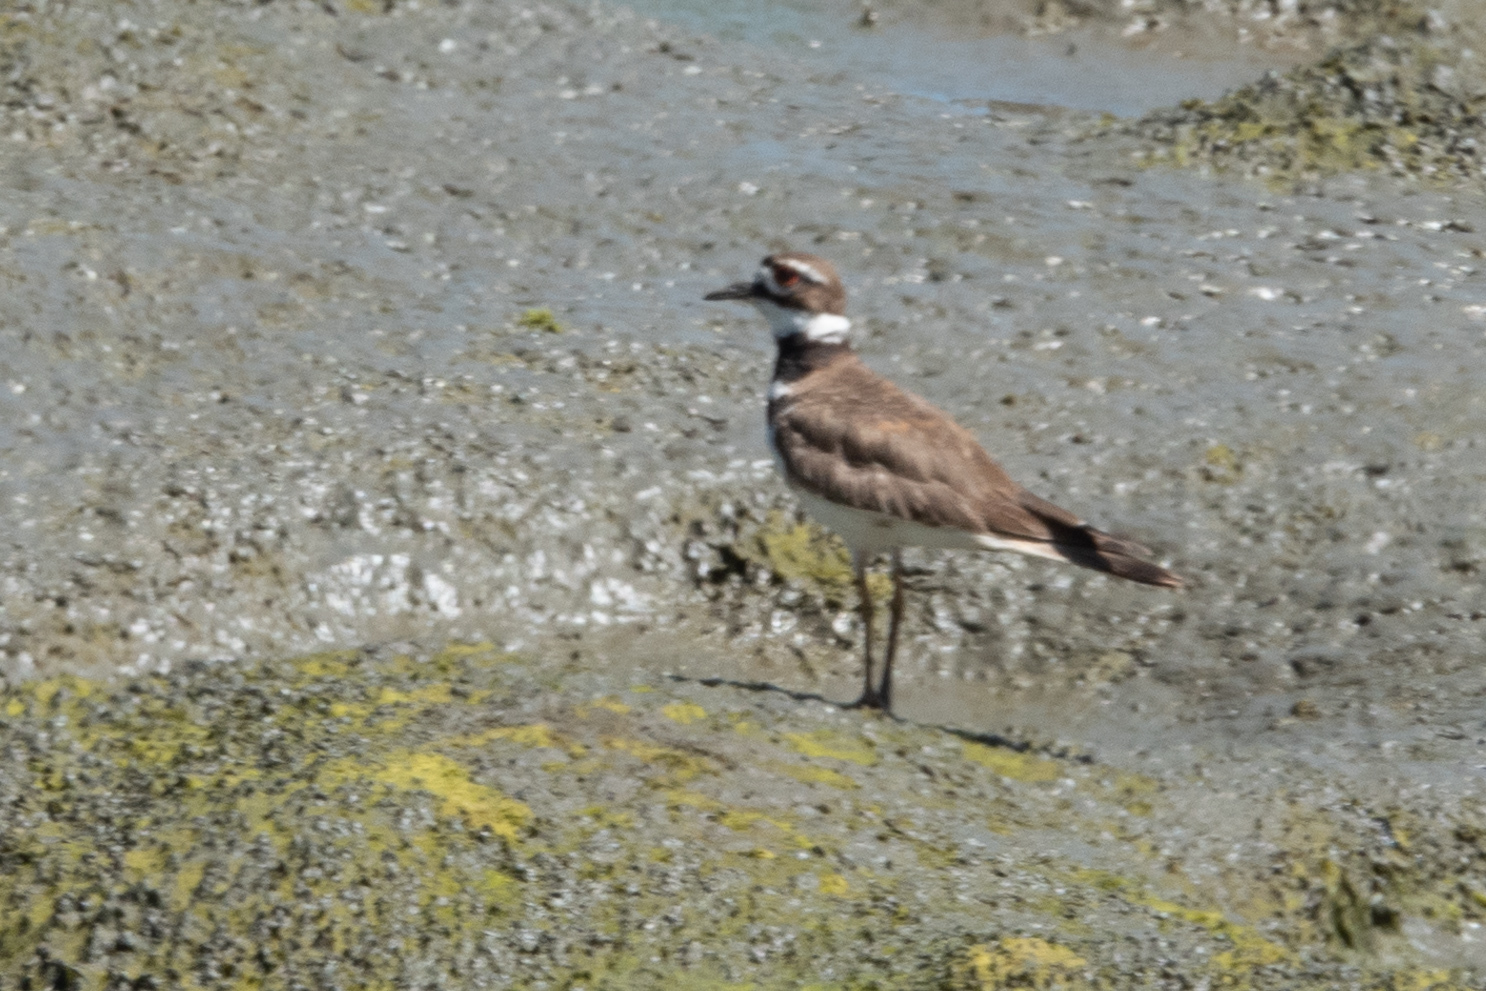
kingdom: Animalia
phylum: Chordata
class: Aves
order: Charadriiformes
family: Charadriidae
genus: Charadrius
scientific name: Charadrius vociferus
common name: Killdeer
